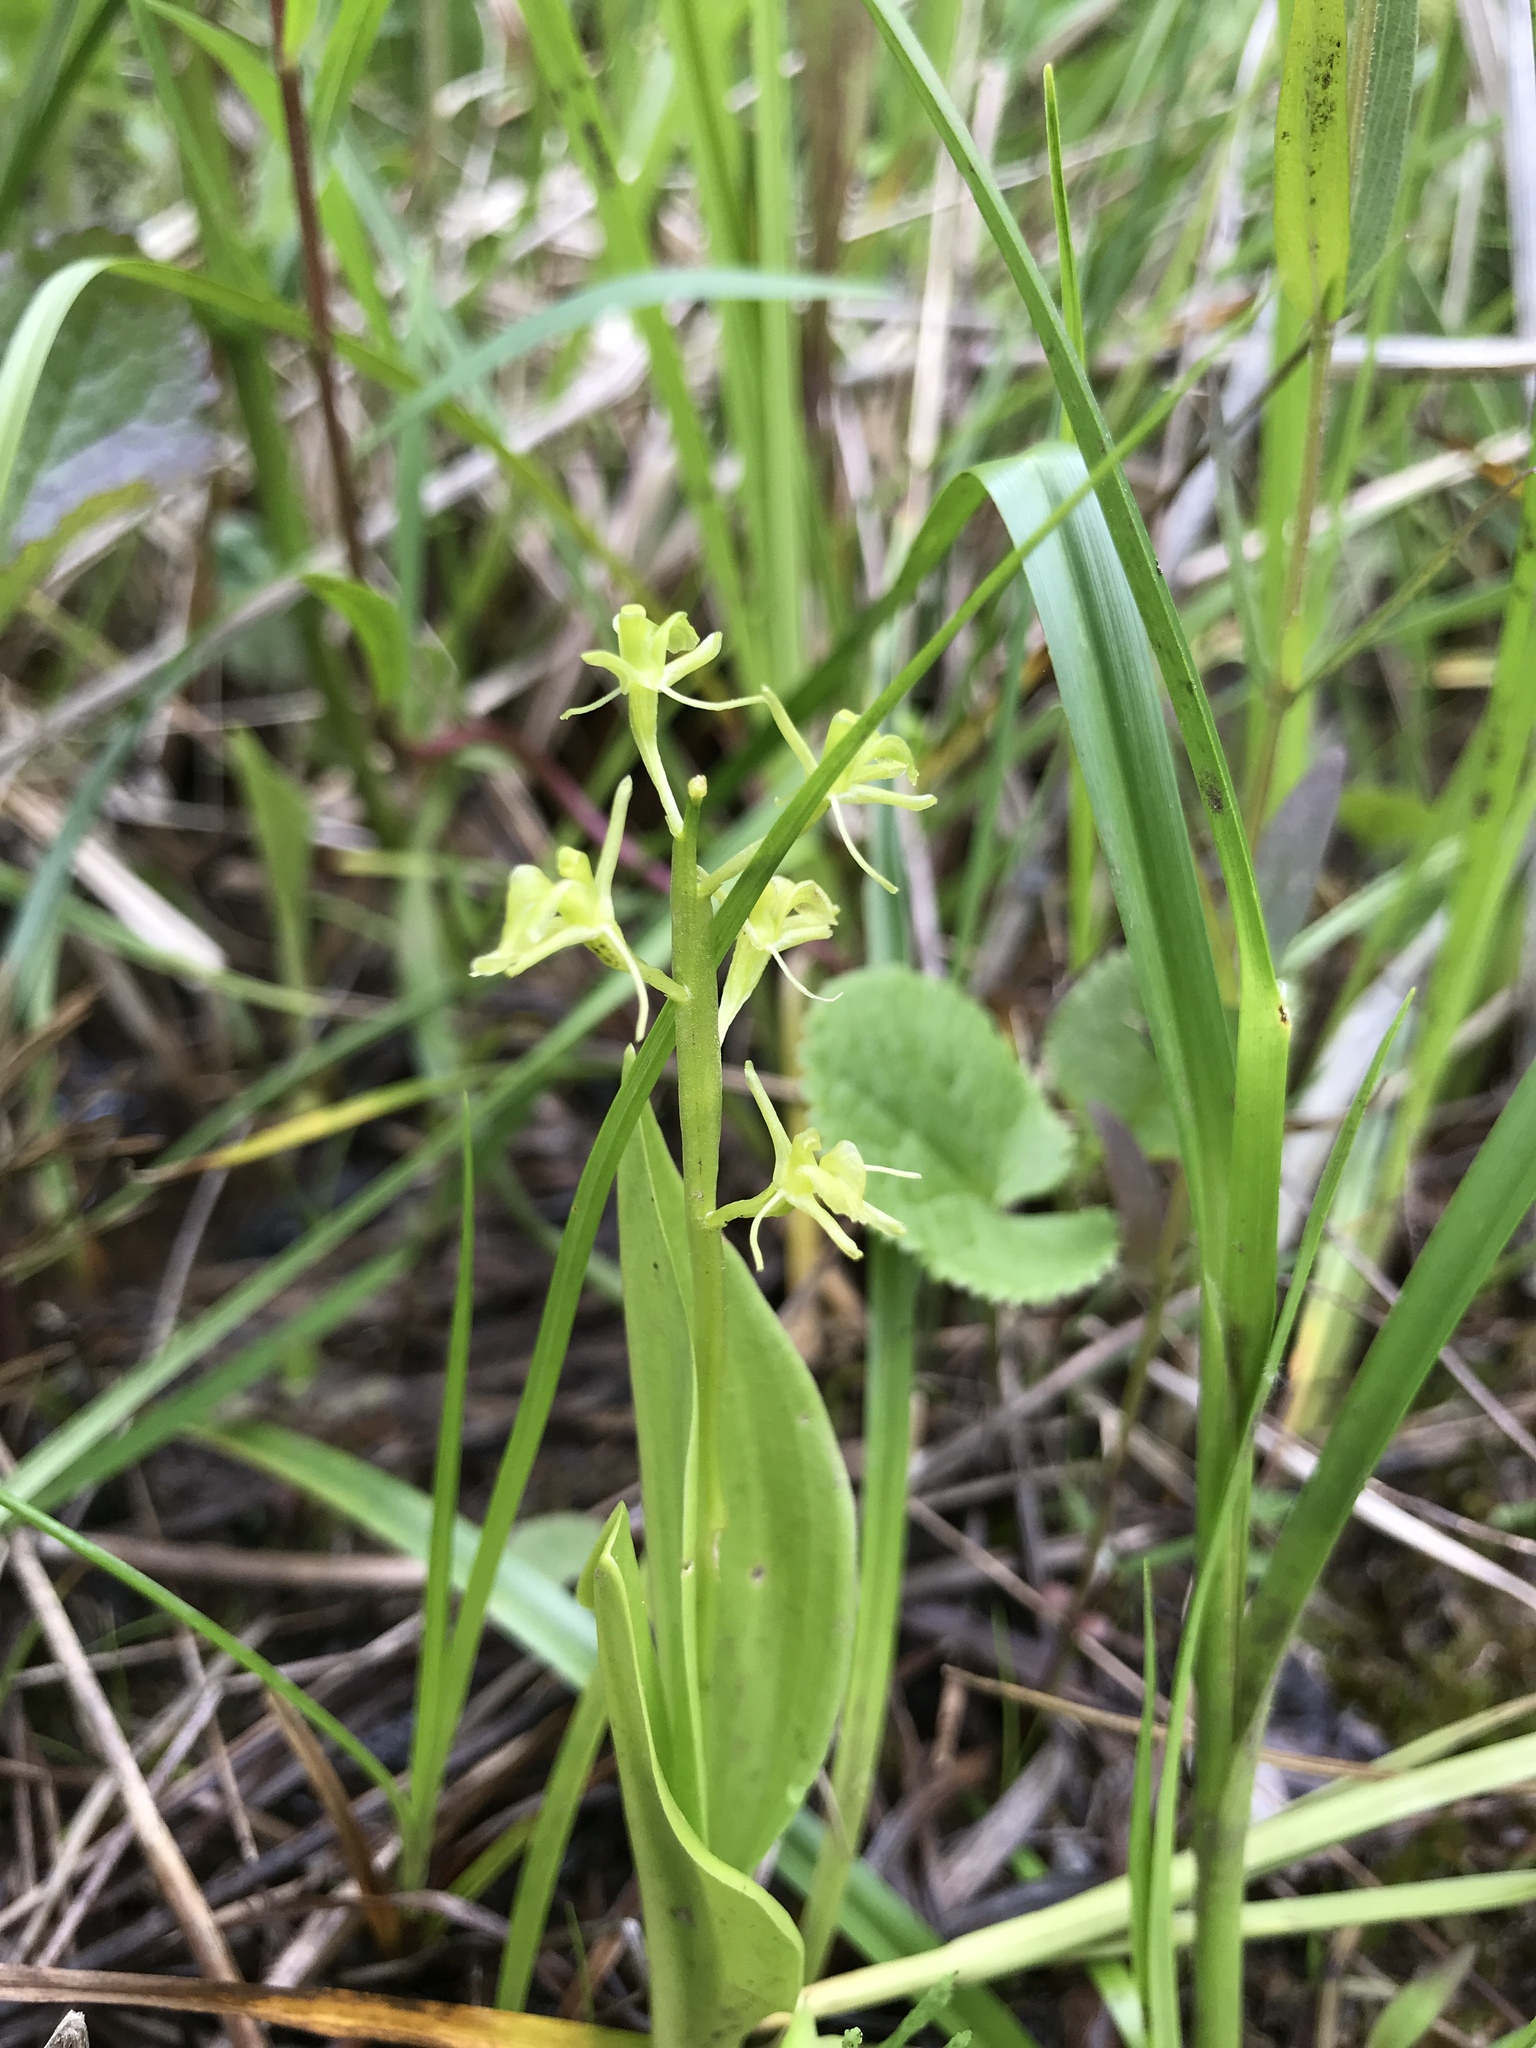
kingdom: Animalia
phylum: Arthropoda
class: Insecta
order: Coleoptera
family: Curculionidae
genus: Liparis
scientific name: Liparis loeselii
